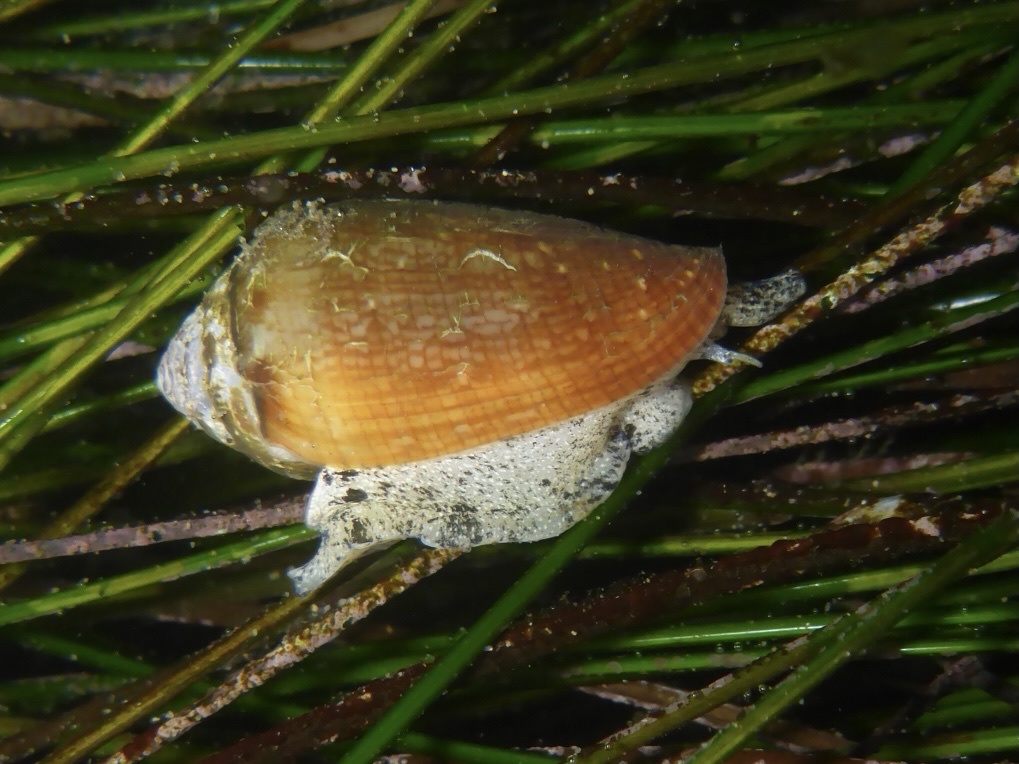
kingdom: Animalia
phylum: Mollusca
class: Gastropoda
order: Neogastropoda
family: Conidae
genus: Californiconus
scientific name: Californiconus californicus
